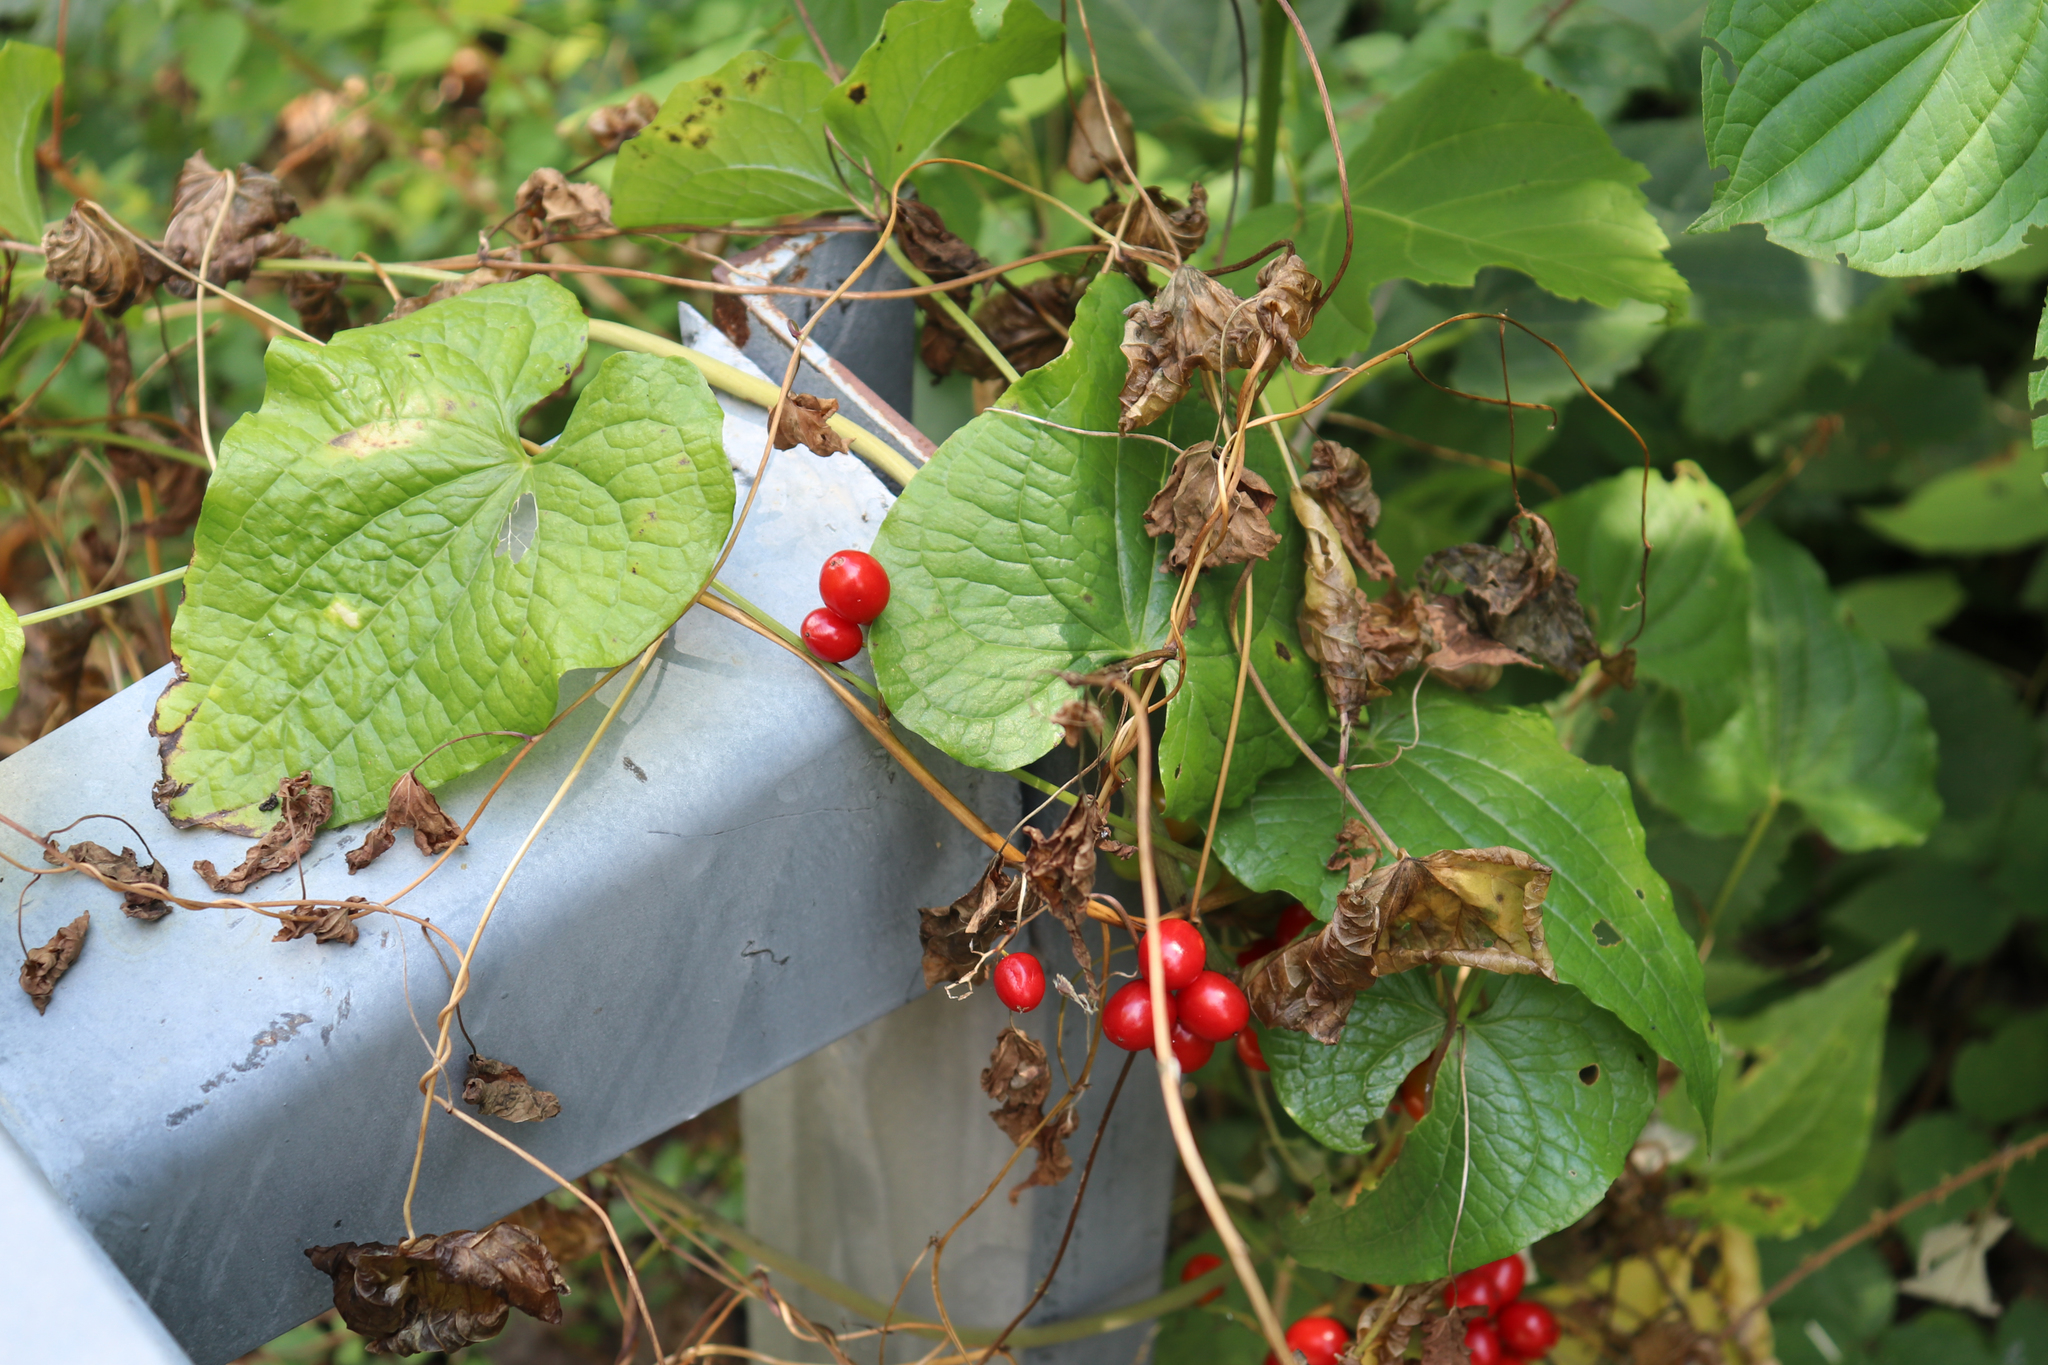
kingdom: Plantae
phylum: Tracheophyta
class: Liliopsida
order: Dioscoreales
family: Dioscoreaceae
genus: Dioscorea
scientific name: Dioscorea communis
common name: Black-bindweed
